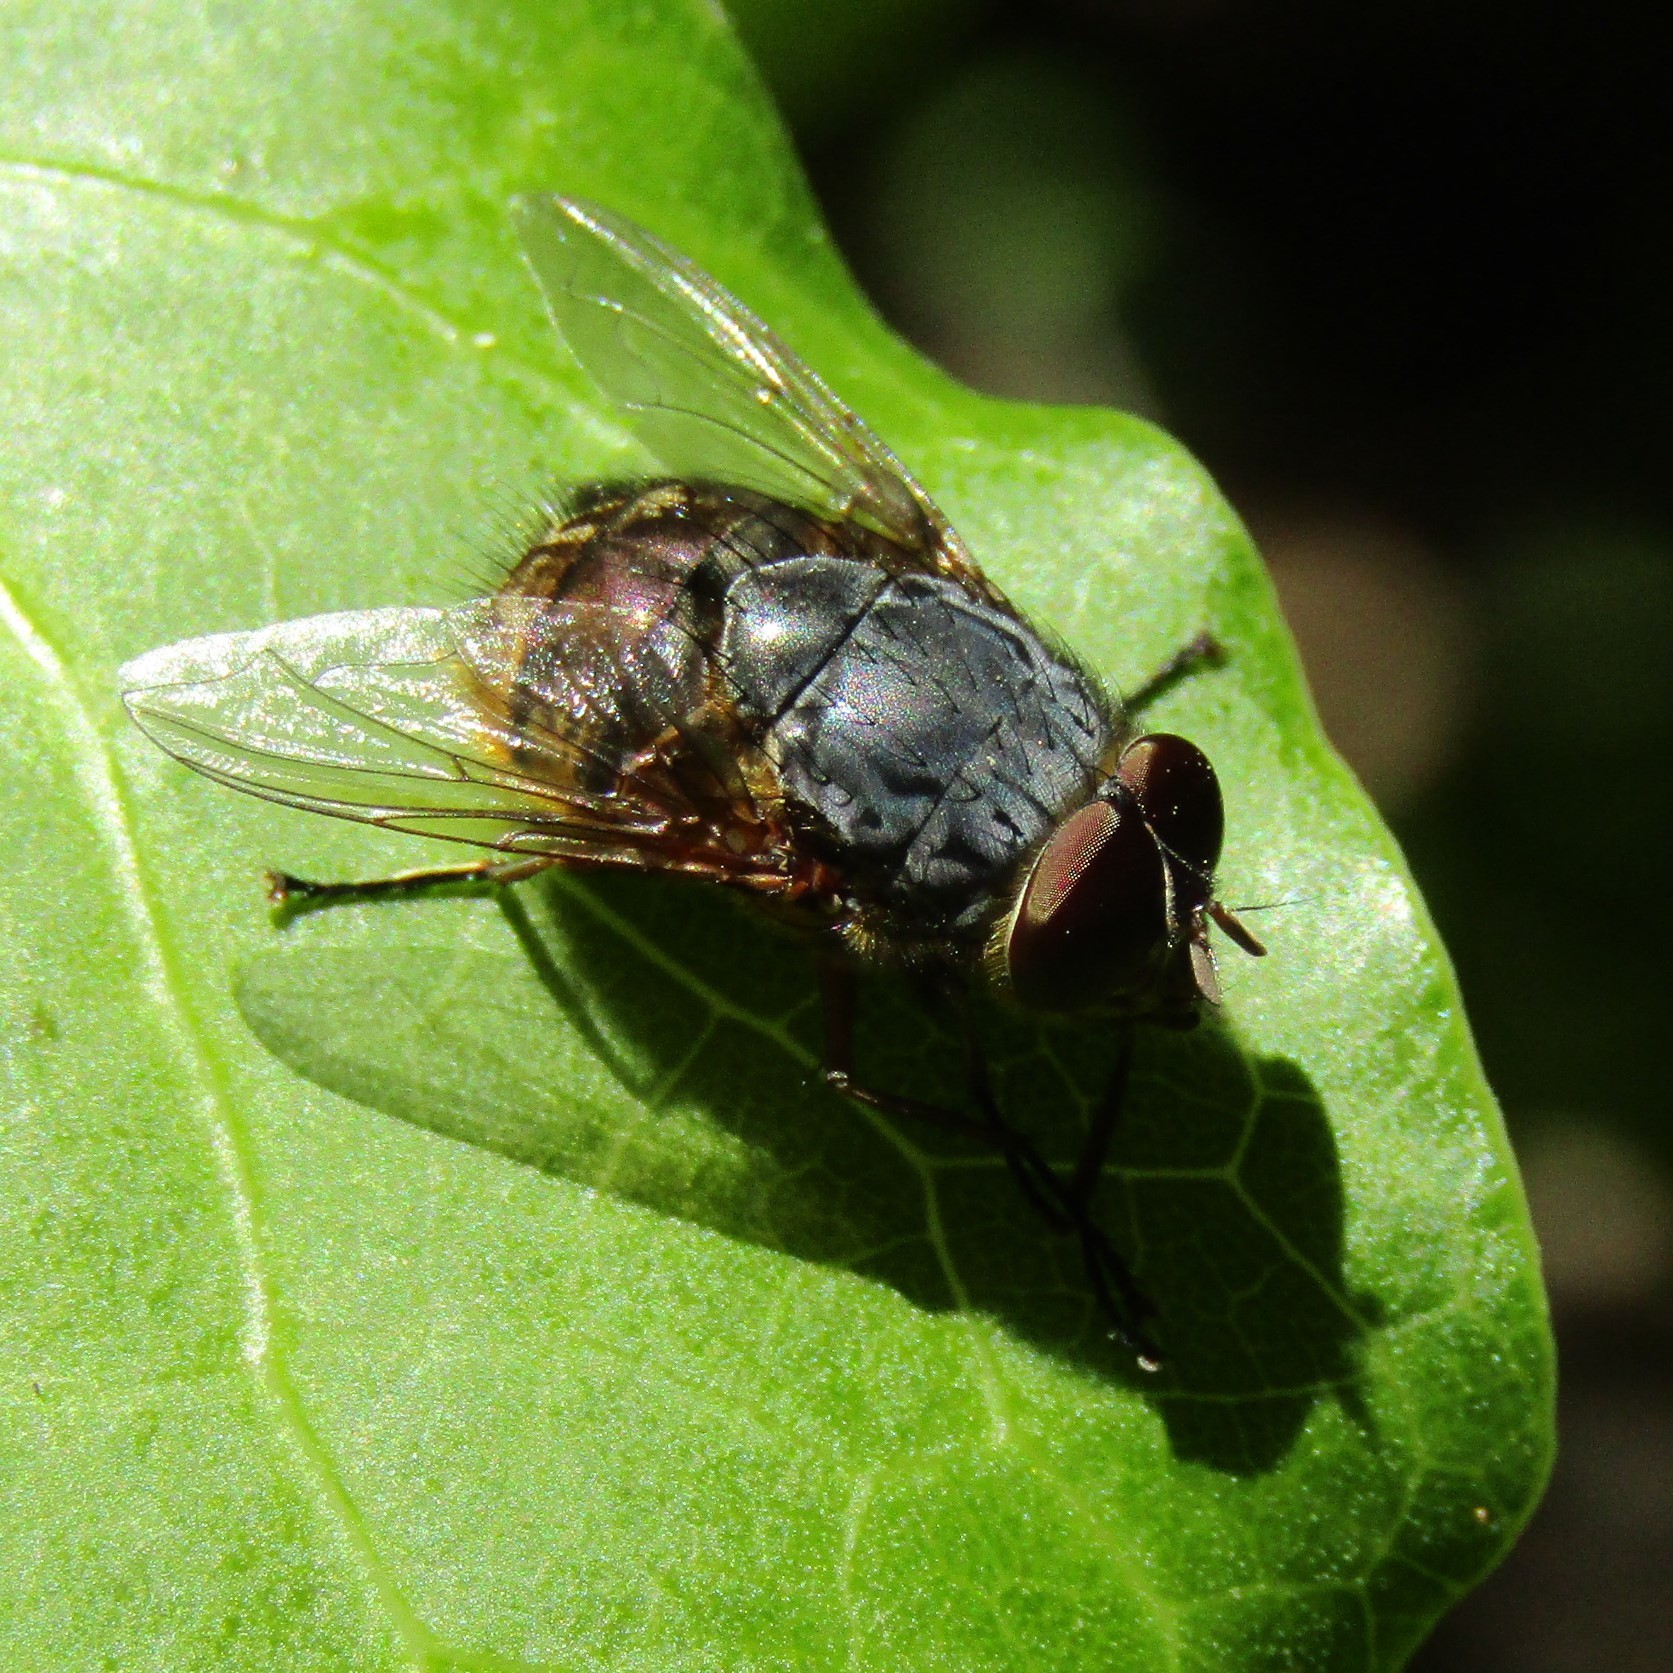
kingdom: Animalia
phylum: Arthropoda
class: Insecta
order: Diptera
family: Calliphoridae
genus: Calliphora
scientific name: Calliphora stygia
